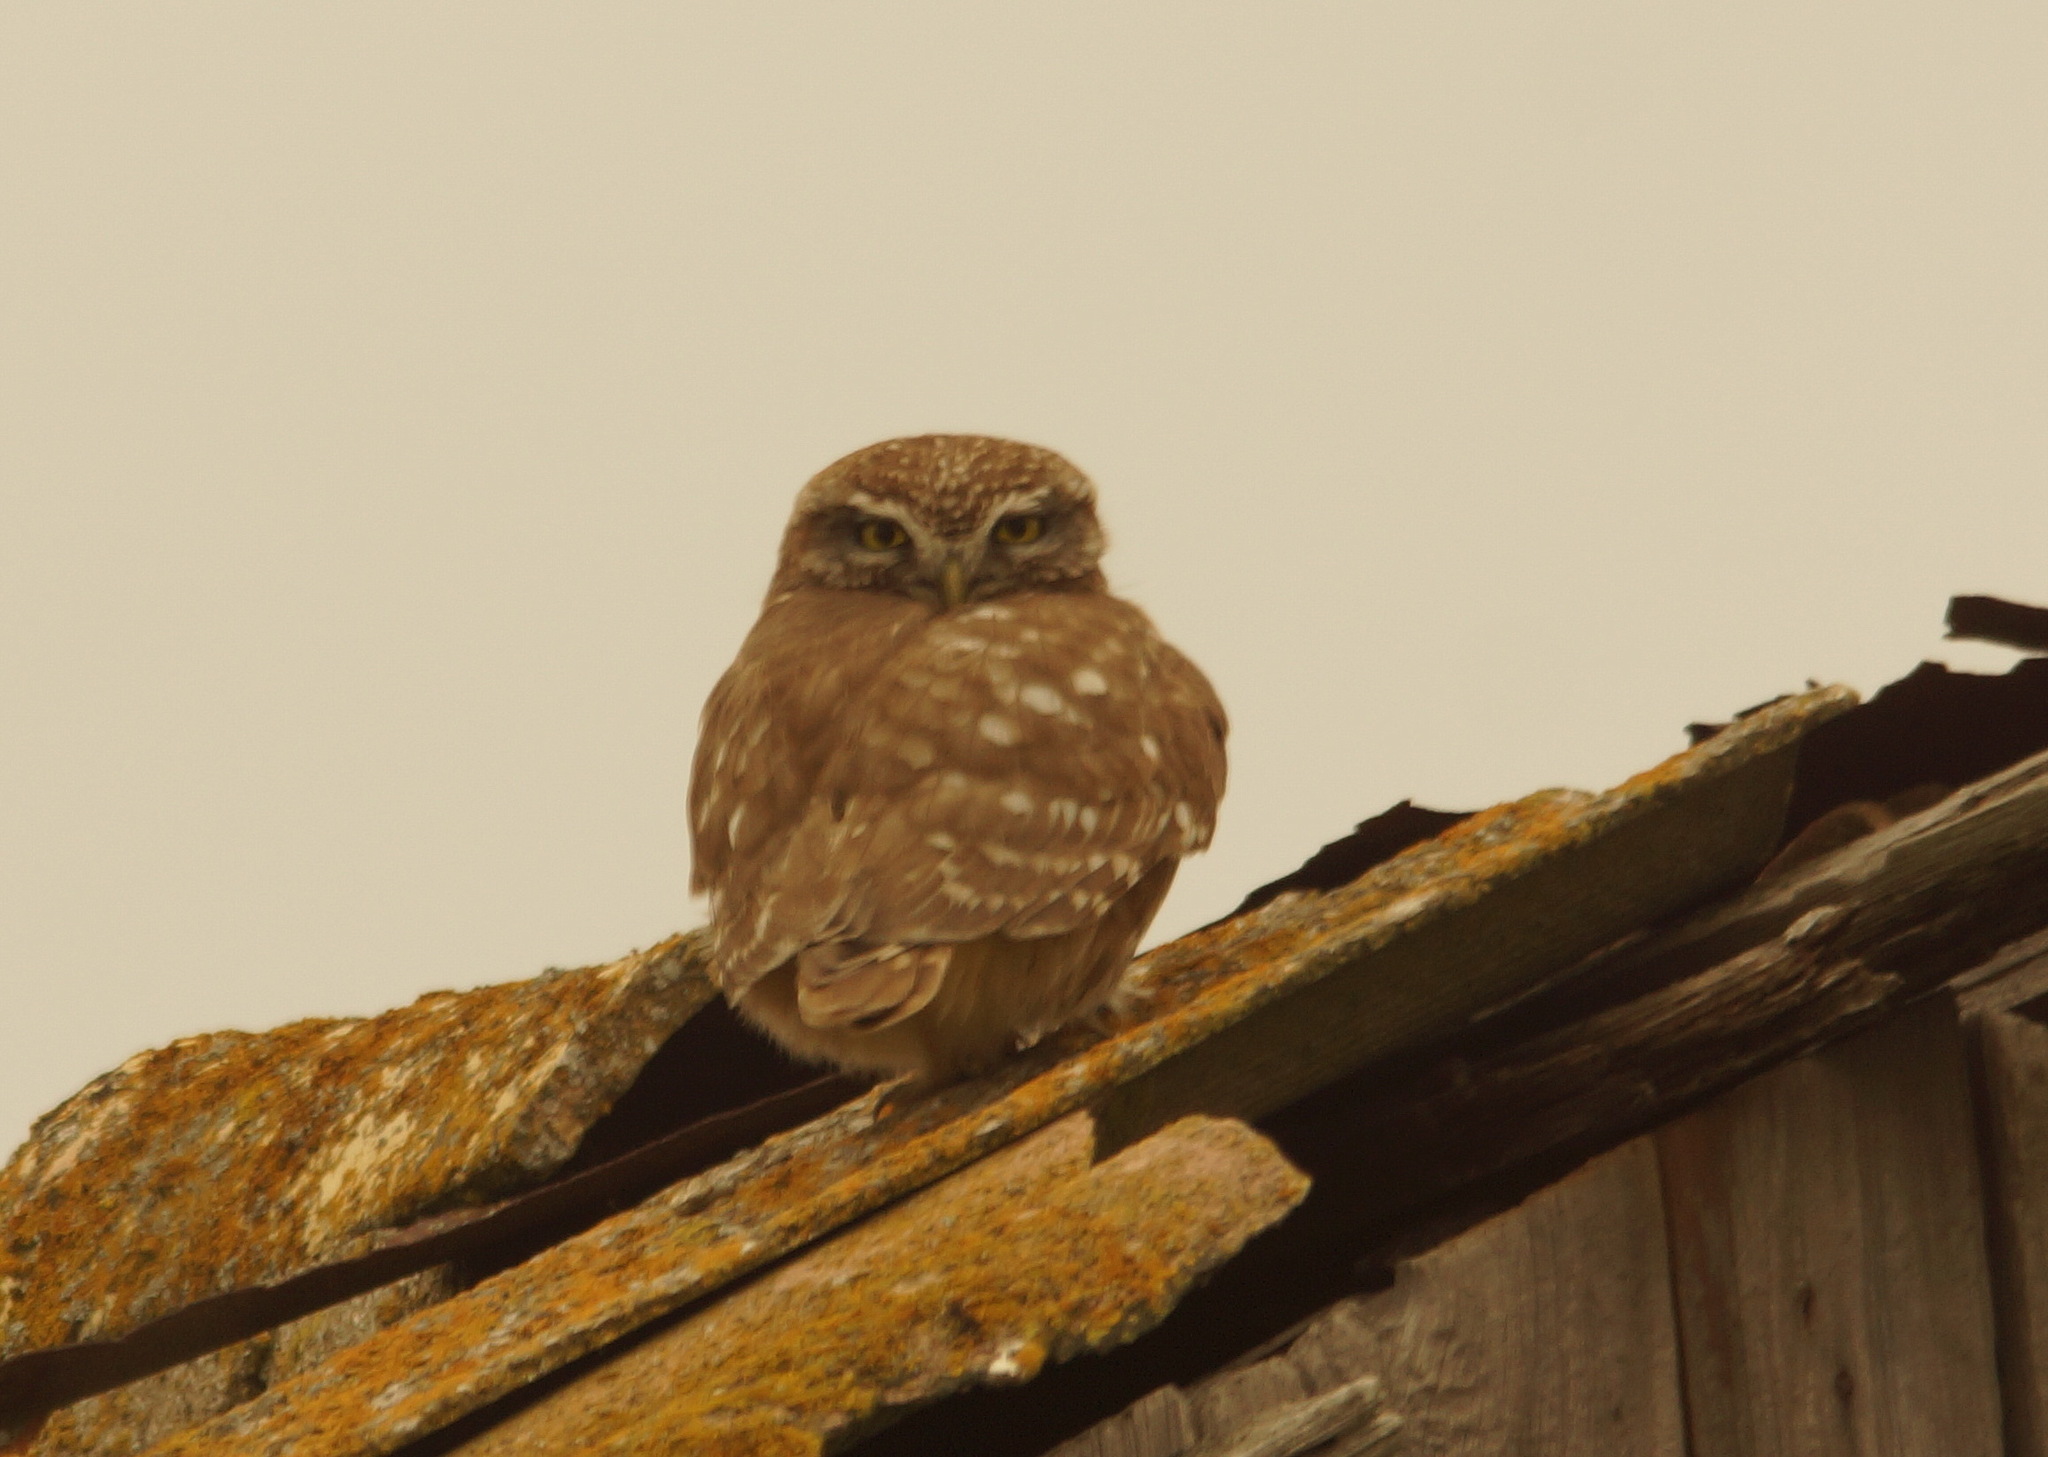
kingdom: Animalia
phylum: Chordata
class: Aves
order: Strigiformes
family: Strigidae
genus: Athene
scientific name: Athene noctua
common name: Little owl
